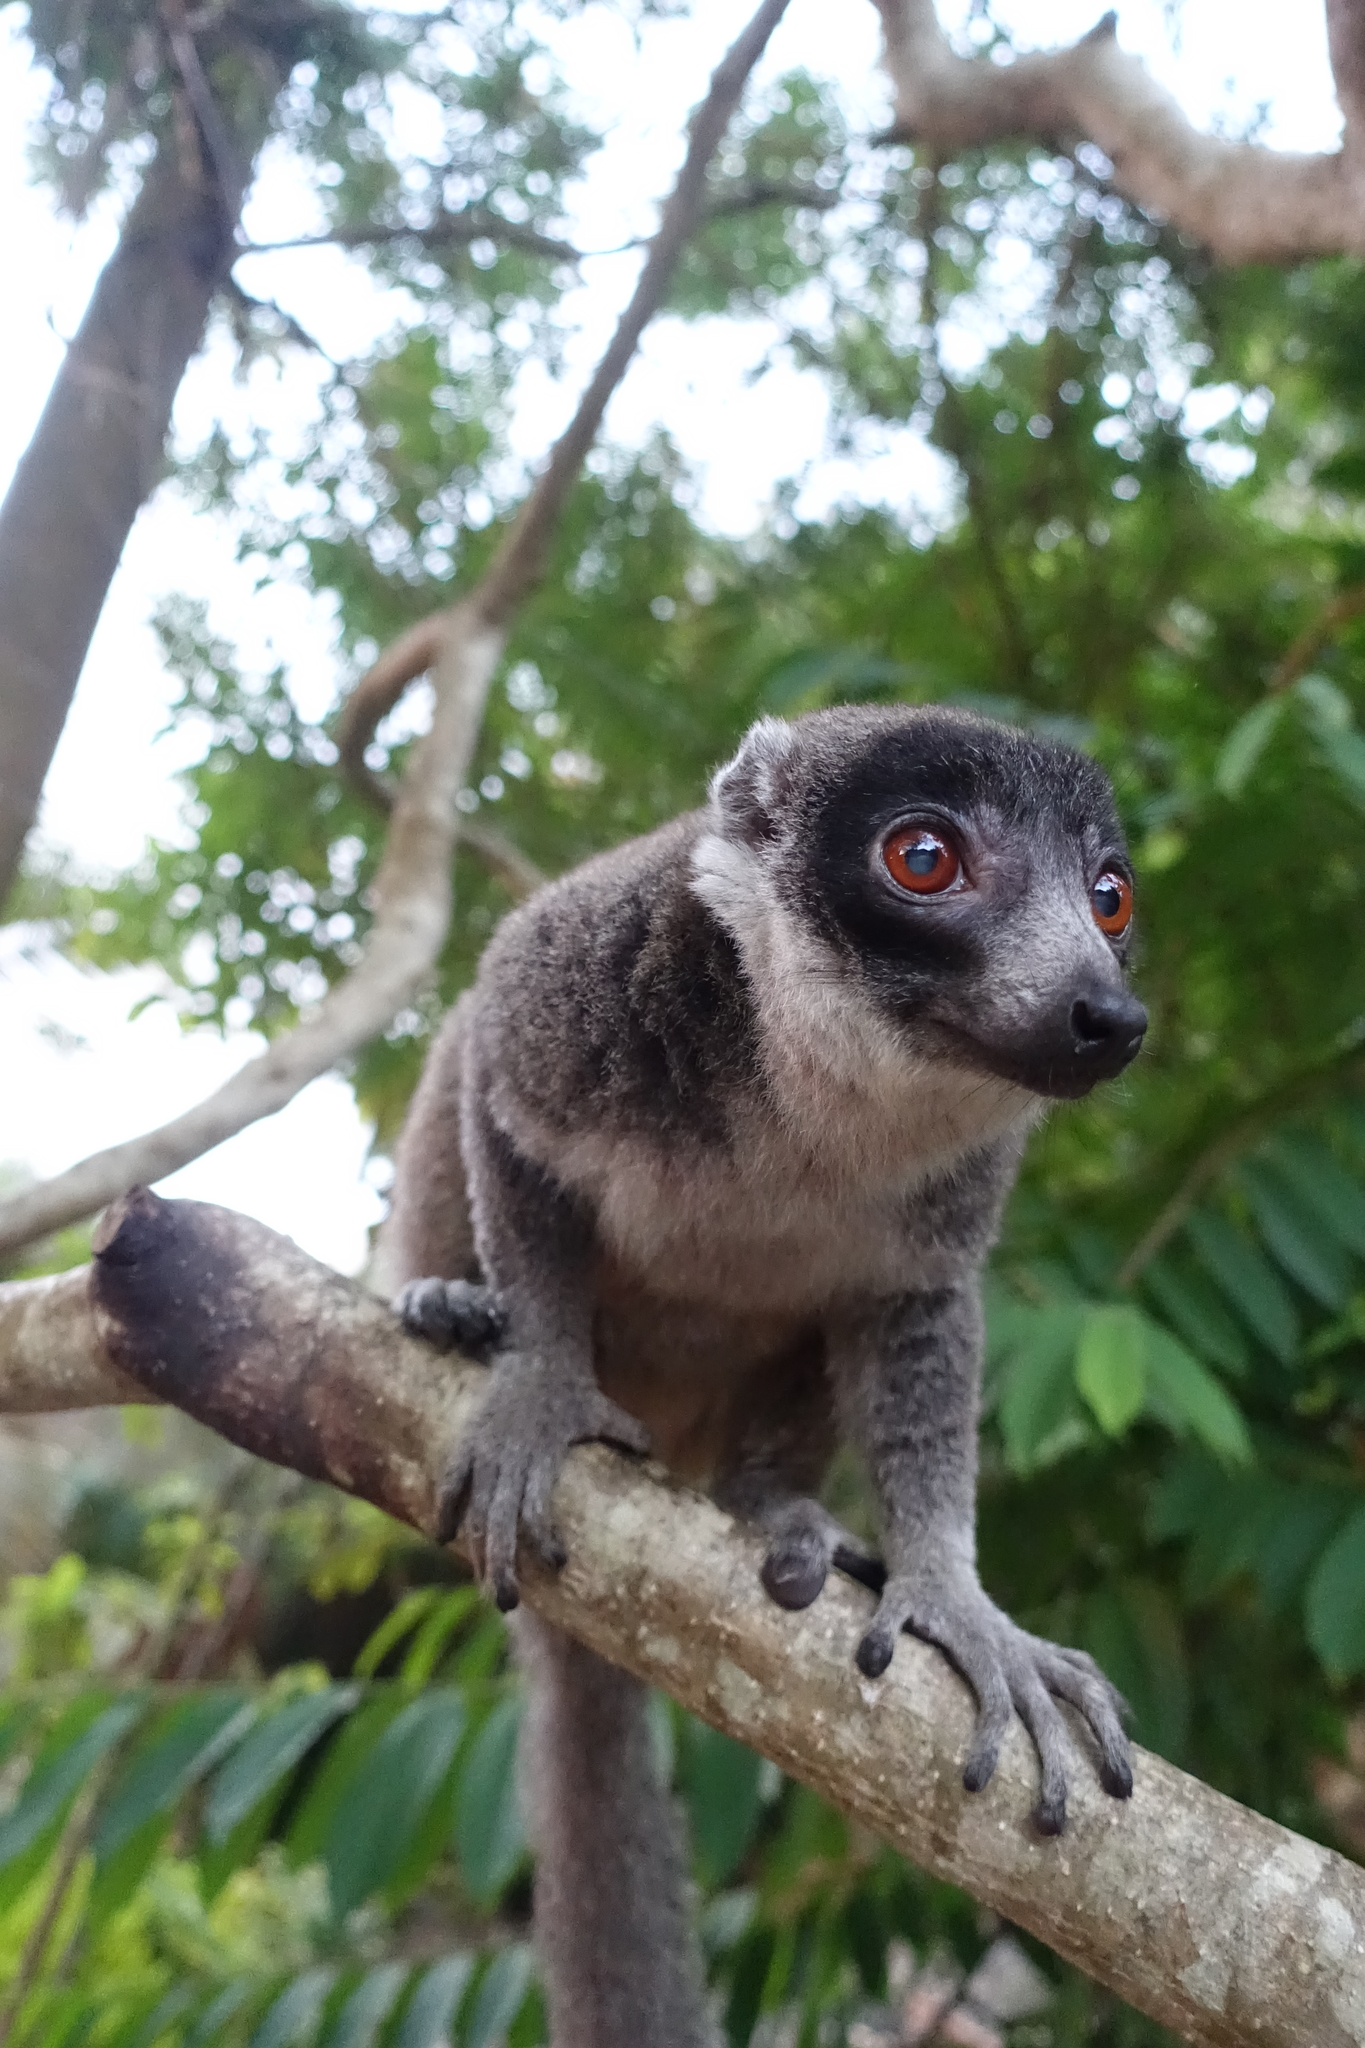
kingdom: Animalia
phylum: Chordata
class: Mammalia
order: Primates
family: Lemuridae
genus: Eulemur
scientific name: Eulemur mongoz
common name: Mongoose lemur
